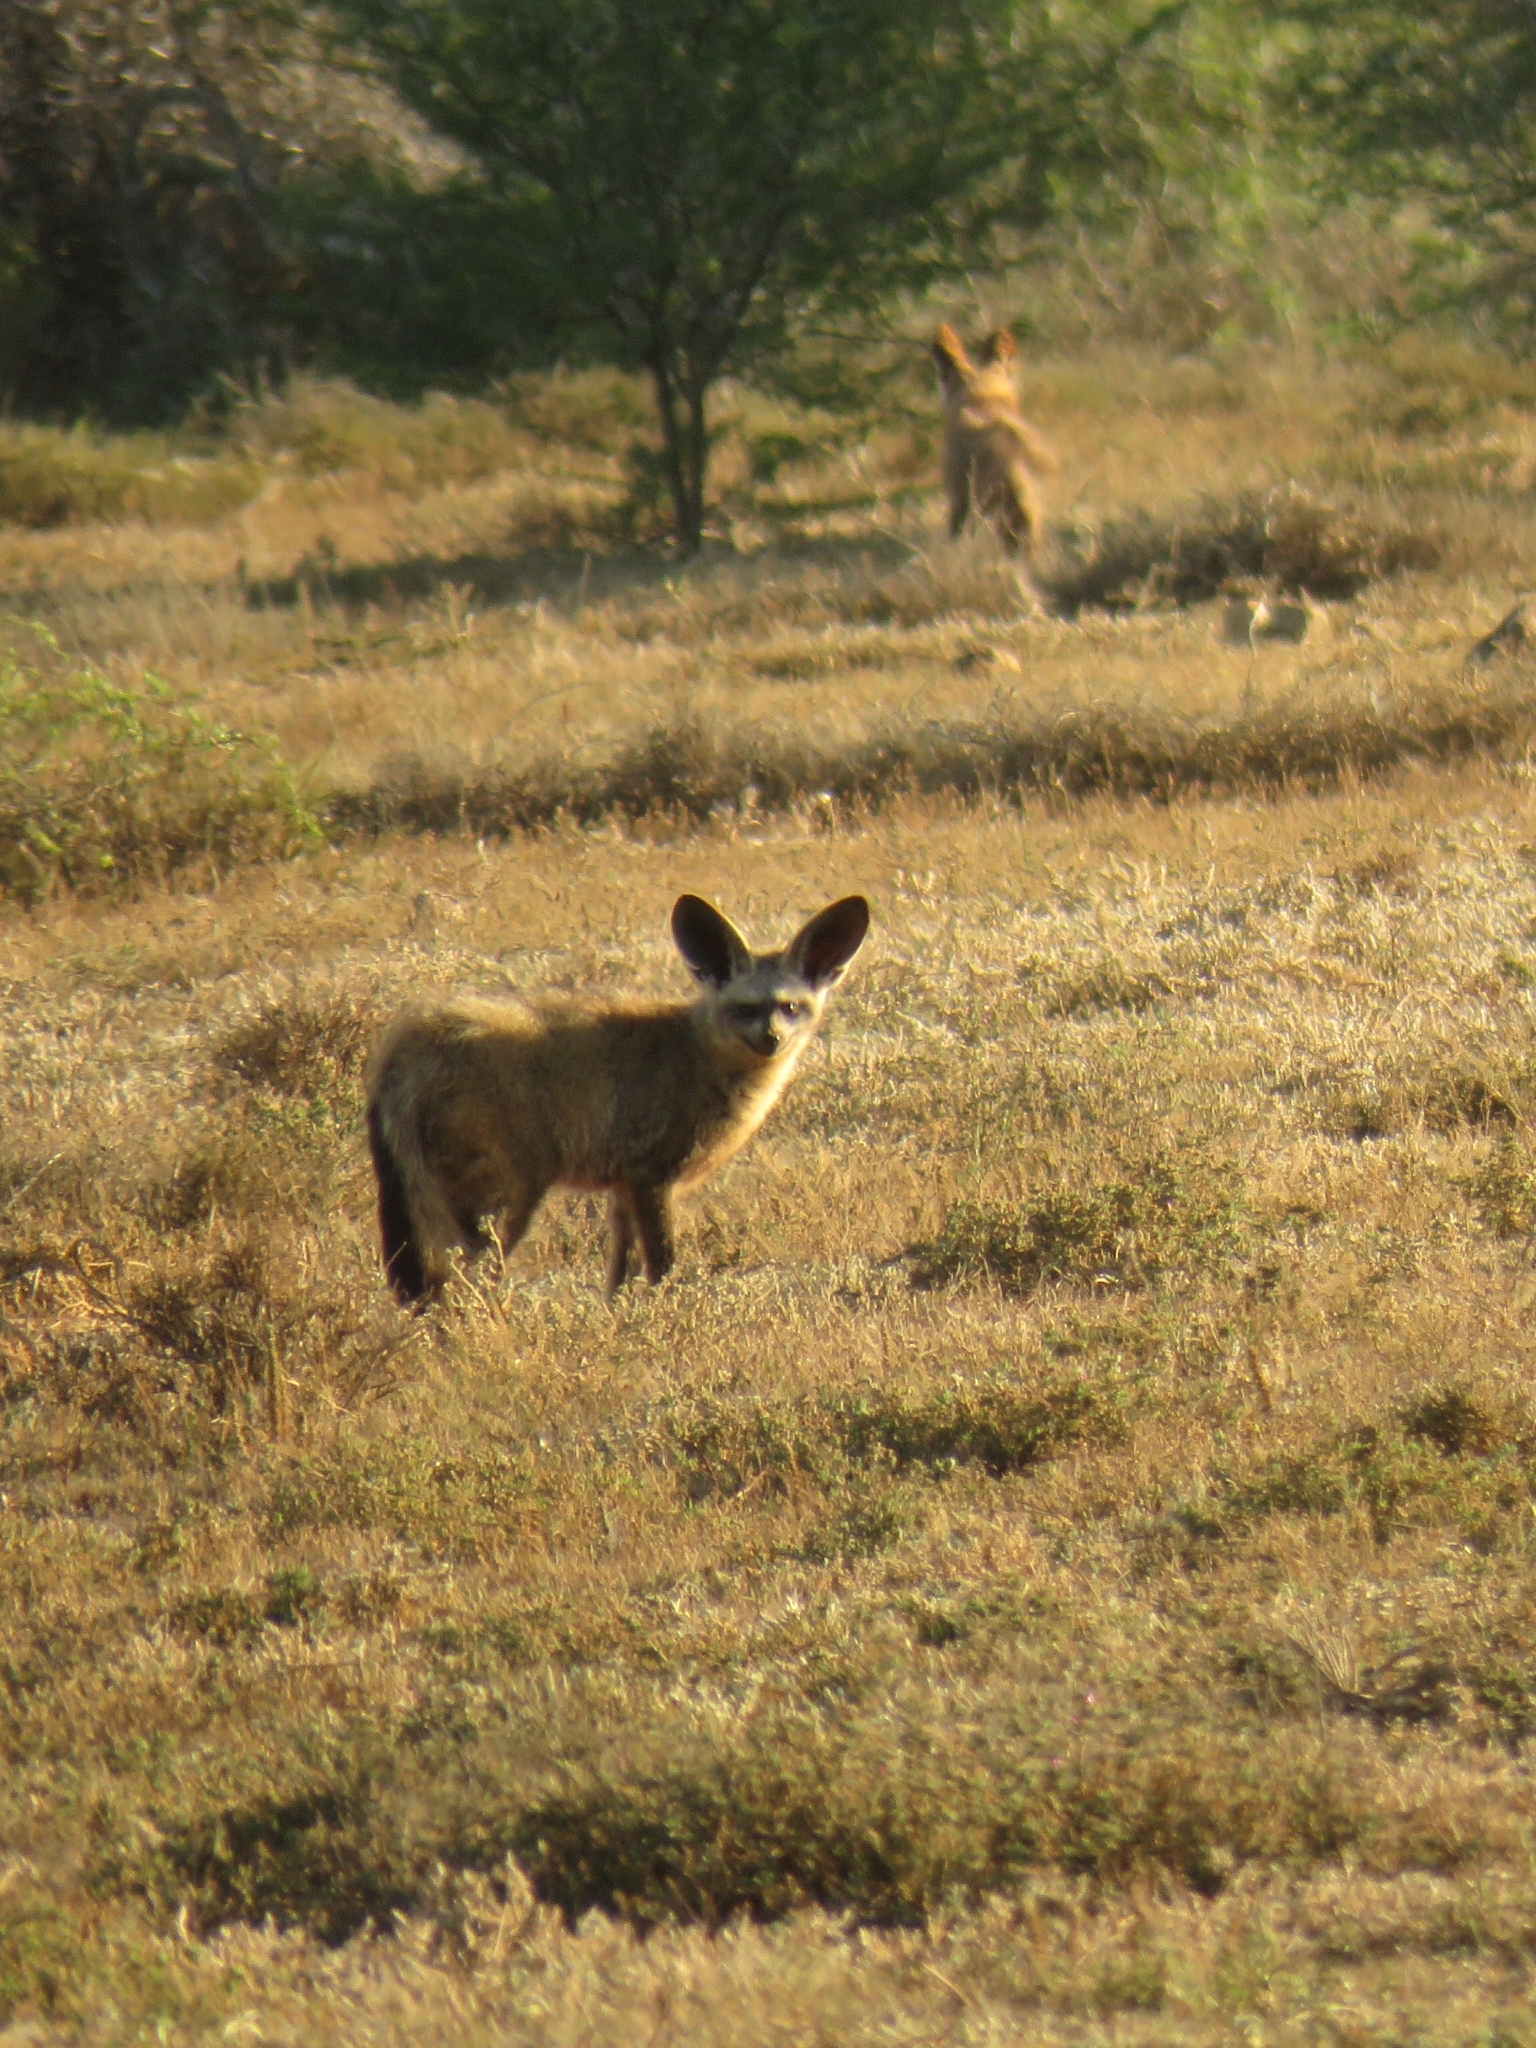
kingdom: Animalia
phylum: Chordata
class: Mammalia
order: Carnivora
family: Canidae
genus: Otocyon
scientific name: Otocyon megalotis
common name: Bat-eared fox
